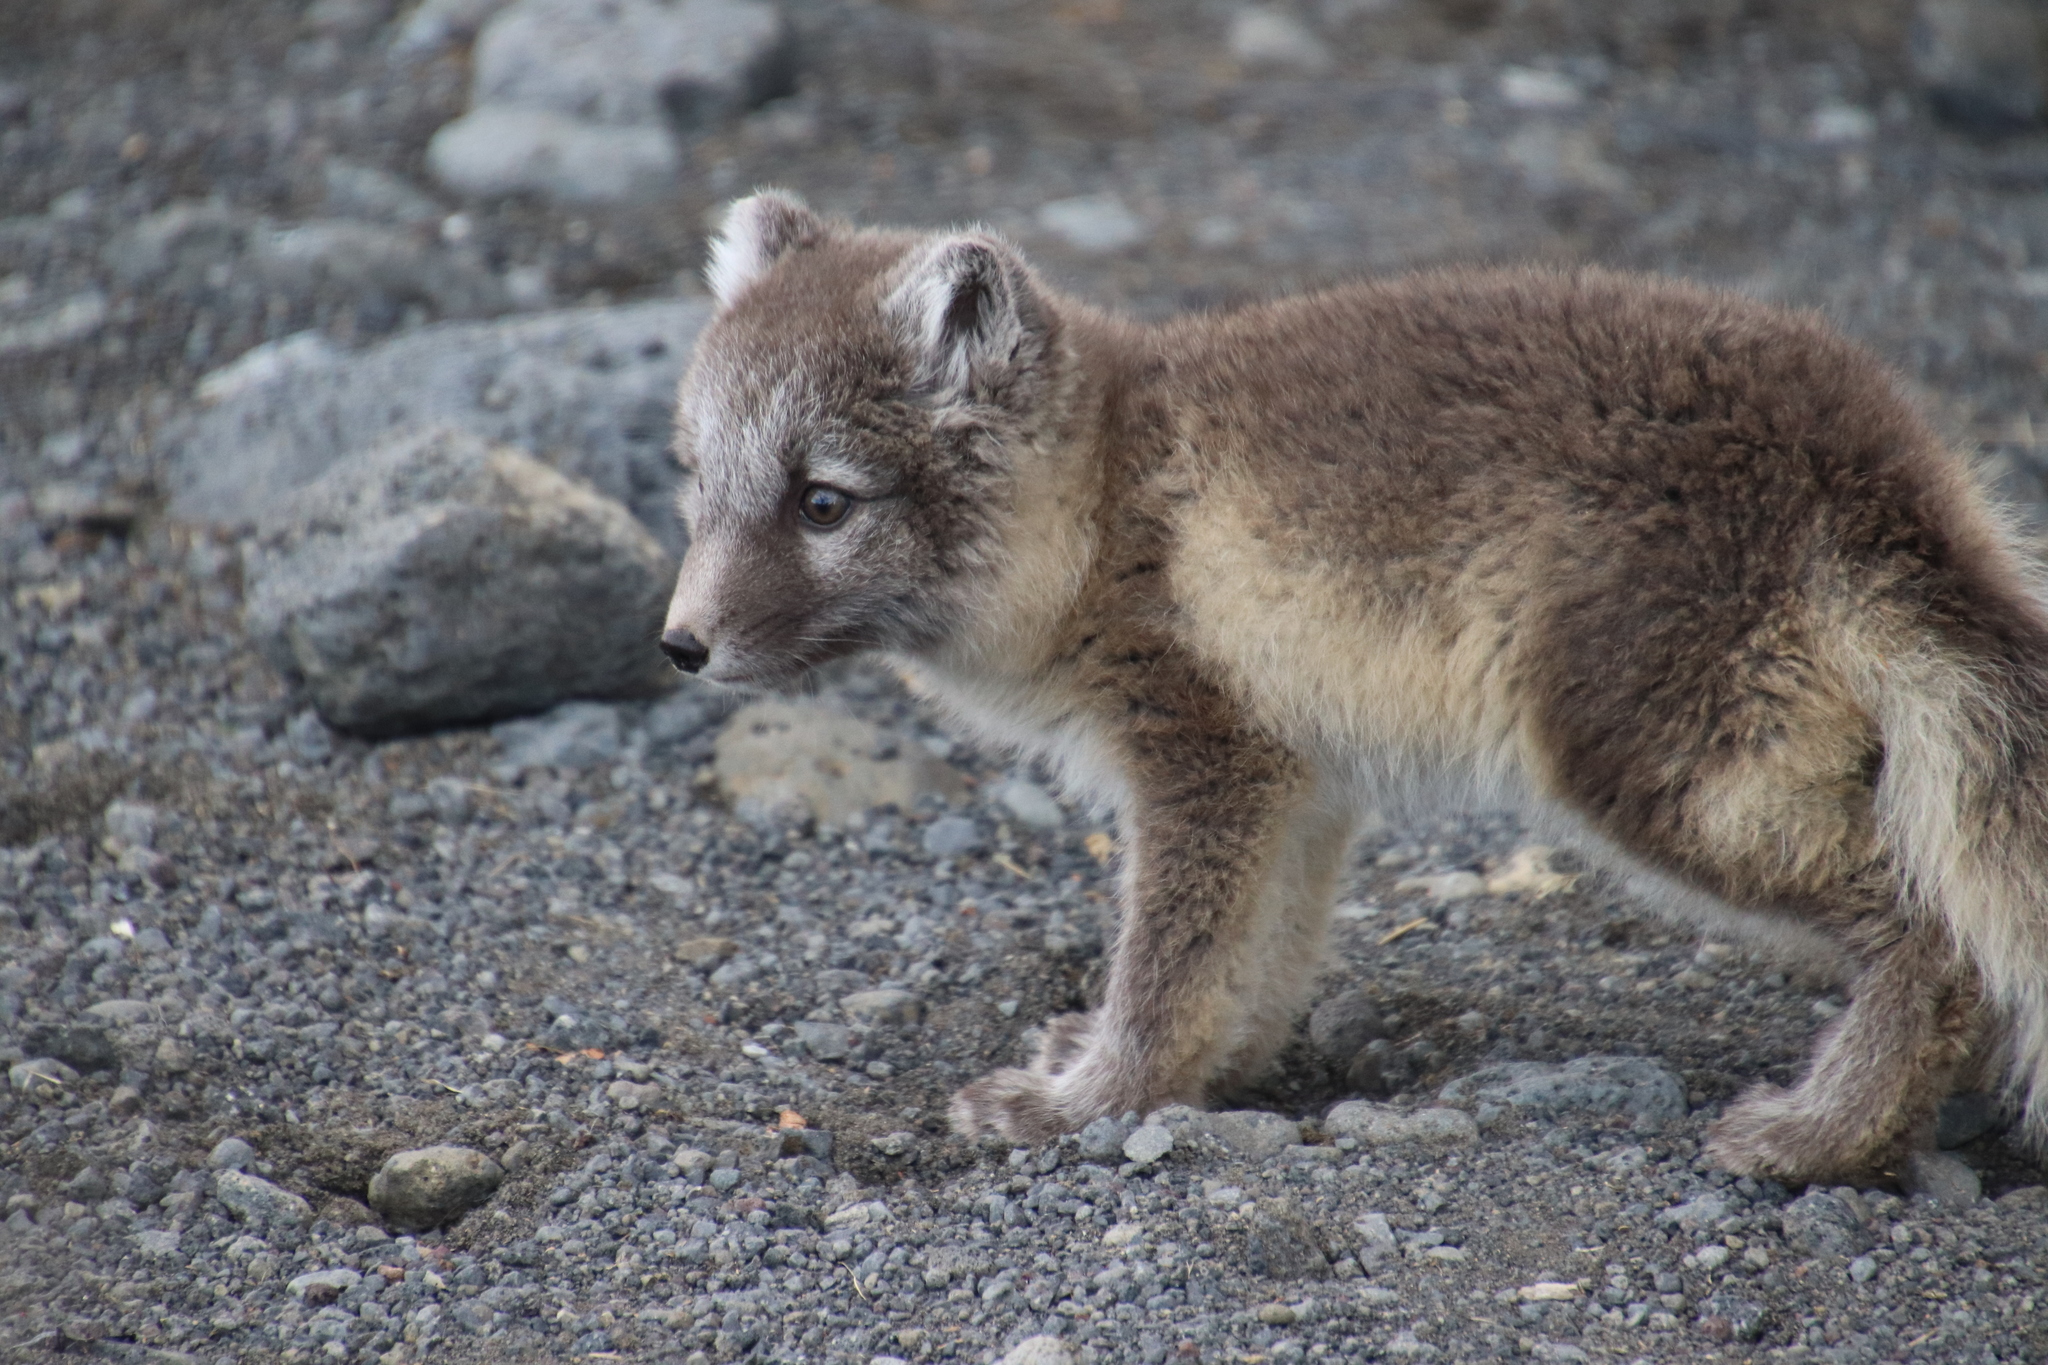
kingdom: Animalia
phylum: Chordata
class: Mammalia
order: Carnivora
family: Canidae
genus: Vulpes
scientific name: Vulpes lagopus
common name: Arctic fox
